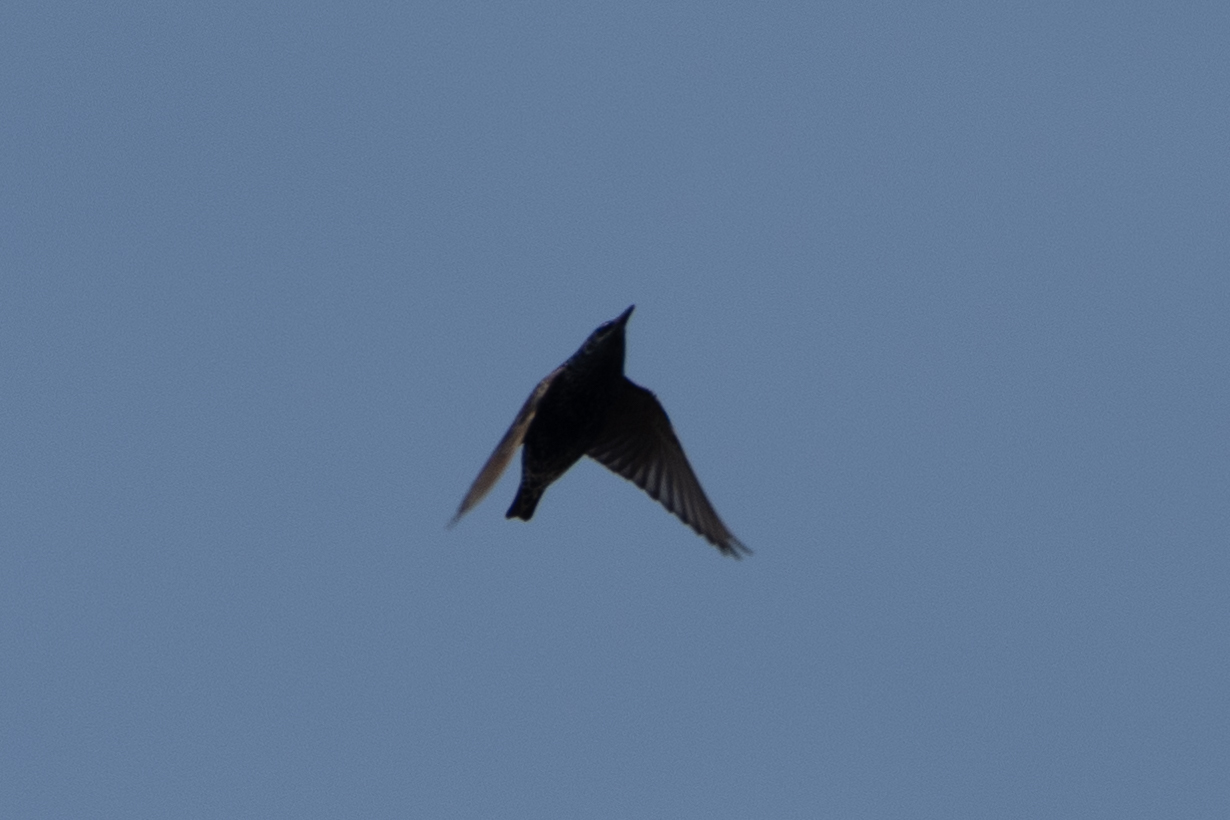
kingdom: Animalia
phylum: Chordata
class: Aves
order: Passeriformes
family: Sturnidae
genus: Sturnus
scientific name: Sturnus vulgaris
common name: Common starling
